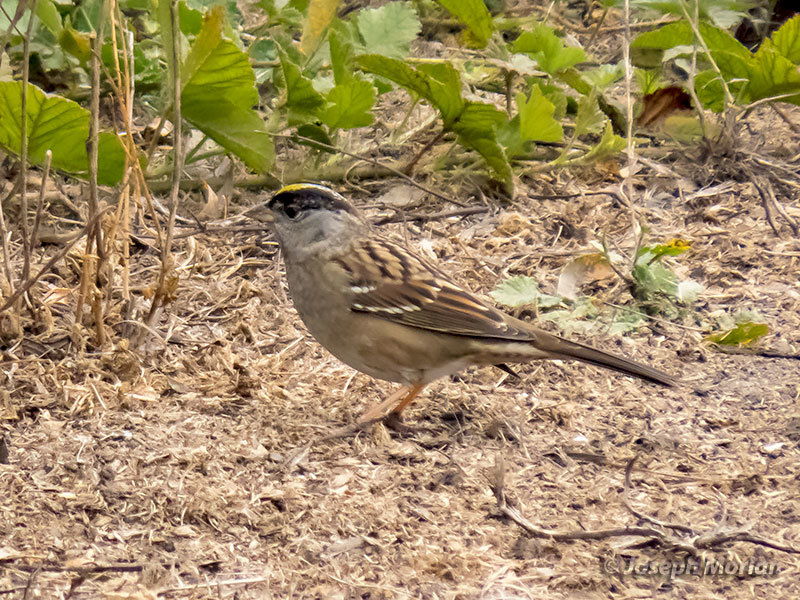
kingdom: Animalia
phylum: Chordata
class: Aves
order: Passeriformes
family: Passerellidae
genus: Zonotrichia
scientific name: Zonotrichia atricapilla
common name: Golden-crowned sparrow
